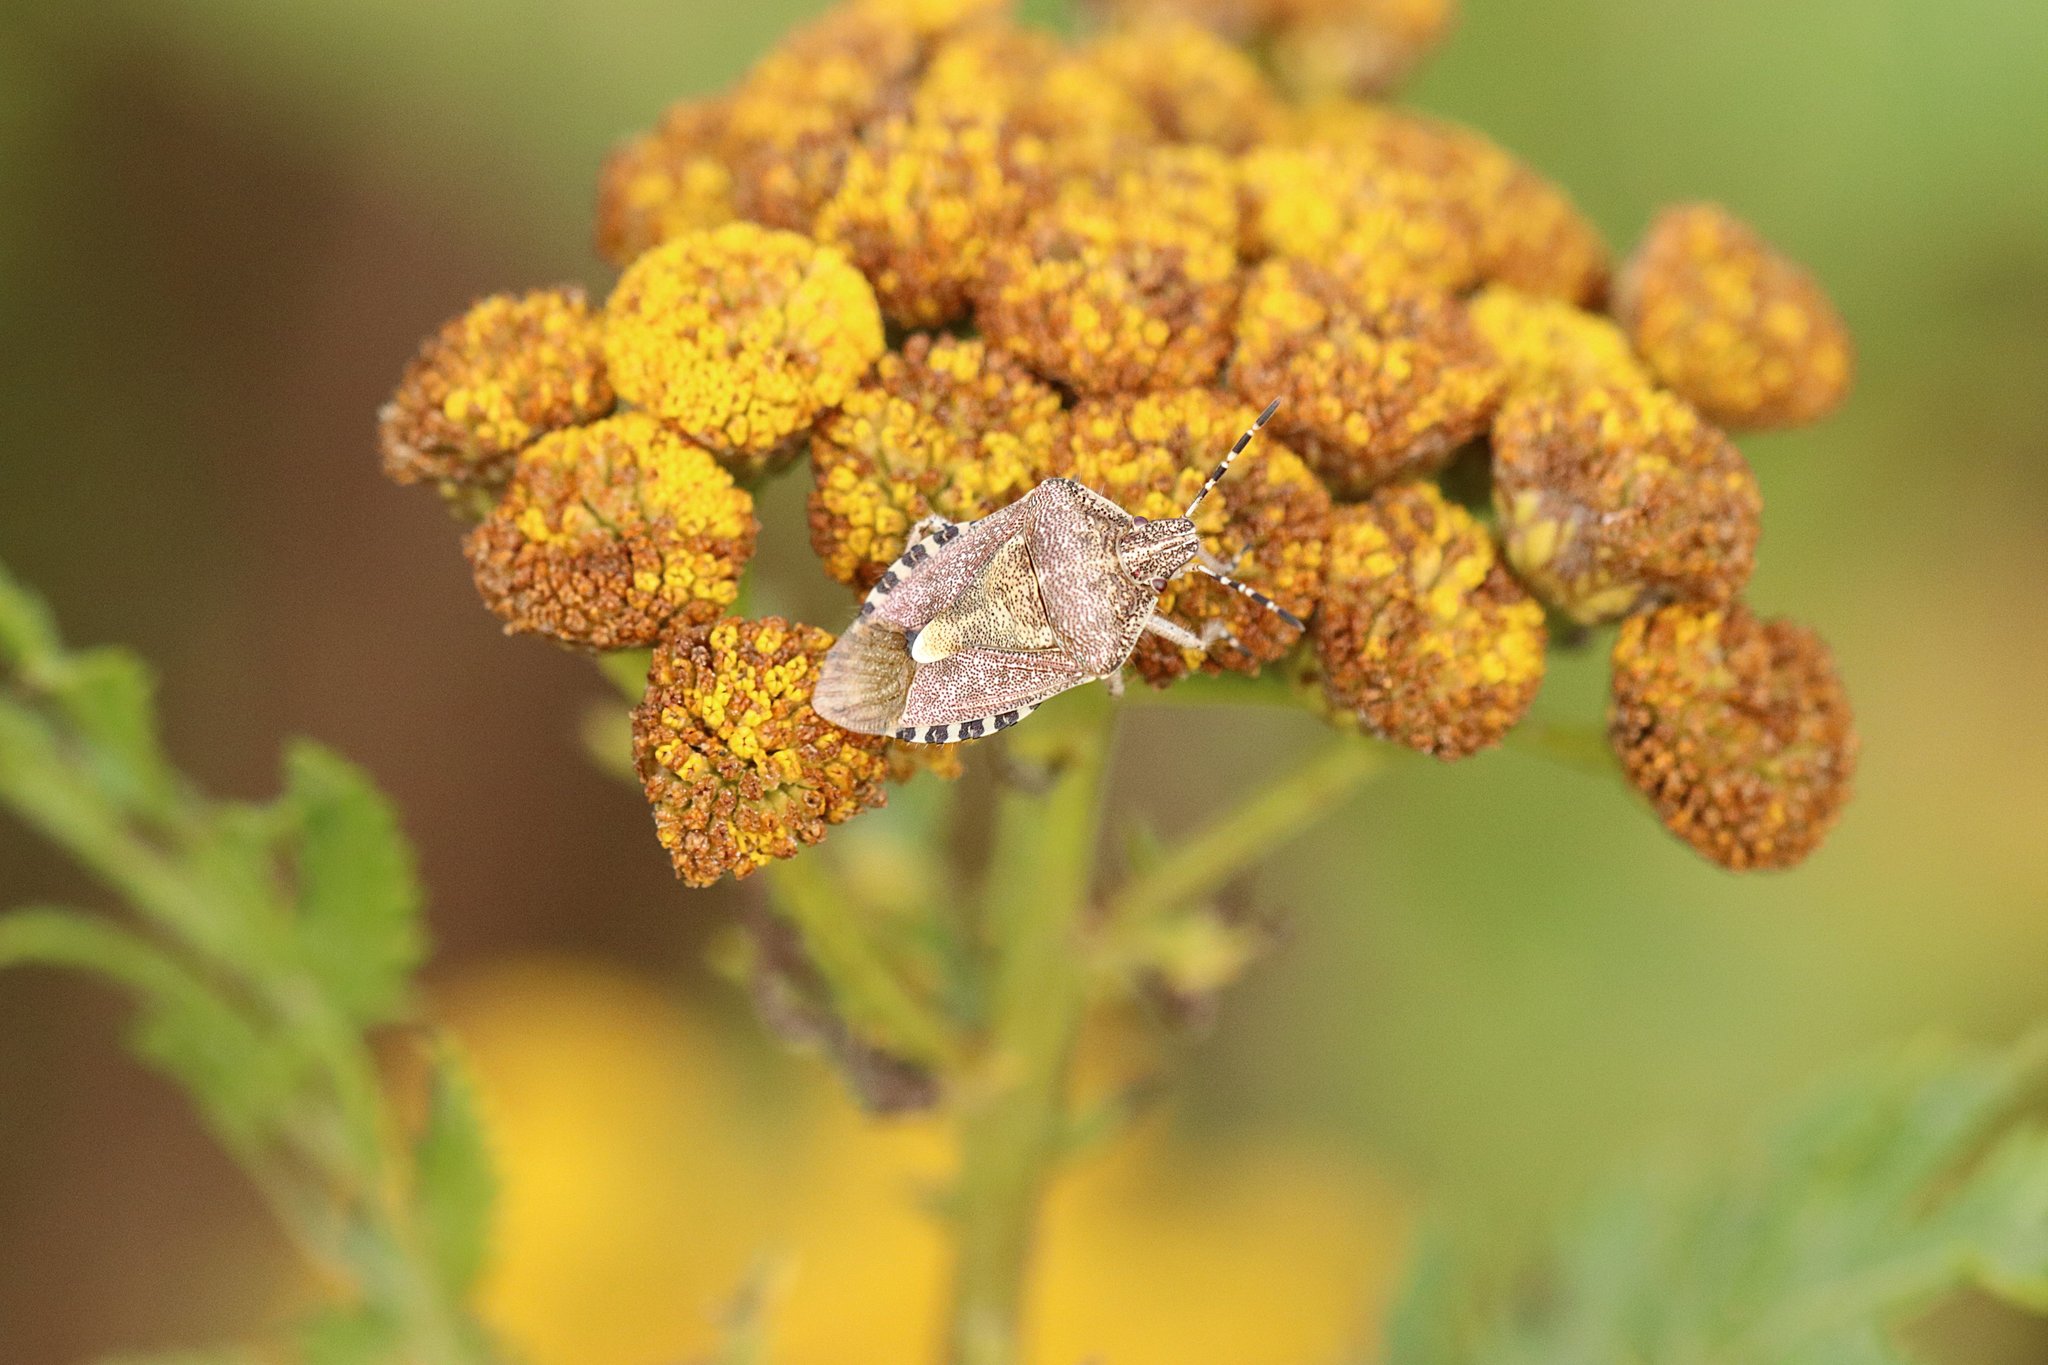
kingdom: Animalia
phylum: Arthropoda
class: Insecta
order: Hemiptera
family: Pentatomidae
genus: Dolycoris
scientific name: Dolycoris baccarum
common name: Sloe bug
